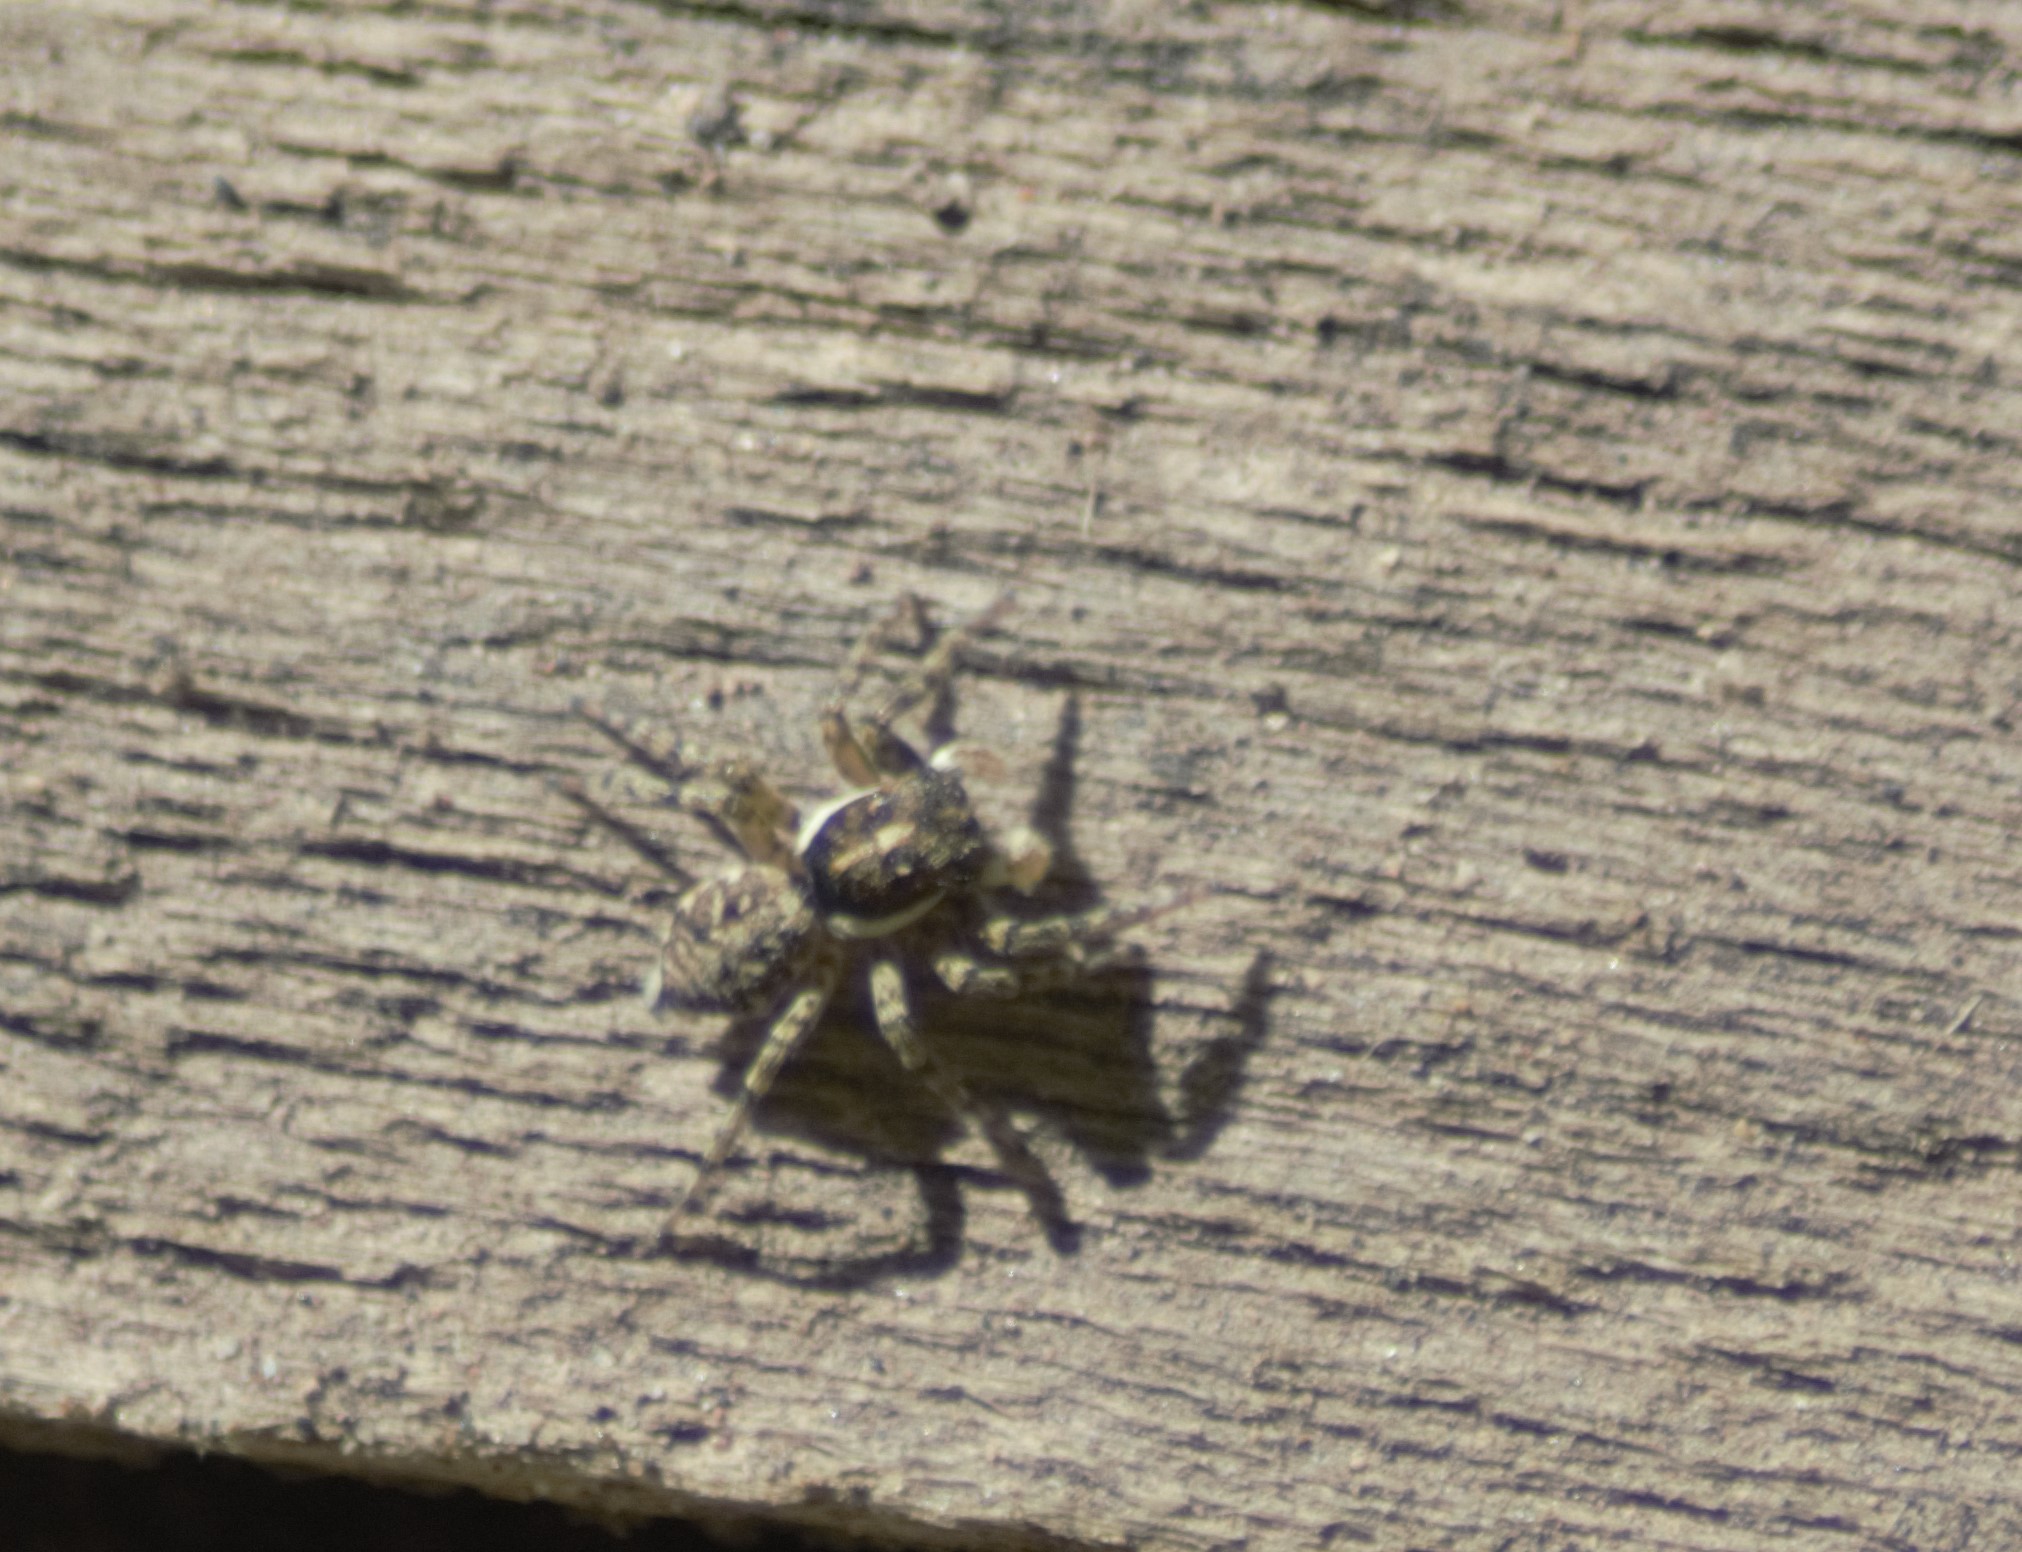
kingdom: Animalia
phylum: Arthropoda
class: Arachnida
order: Araneae
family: Salticidae
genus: Menemerus
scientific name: Menemerus semilimbatus
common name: Jumping spider
